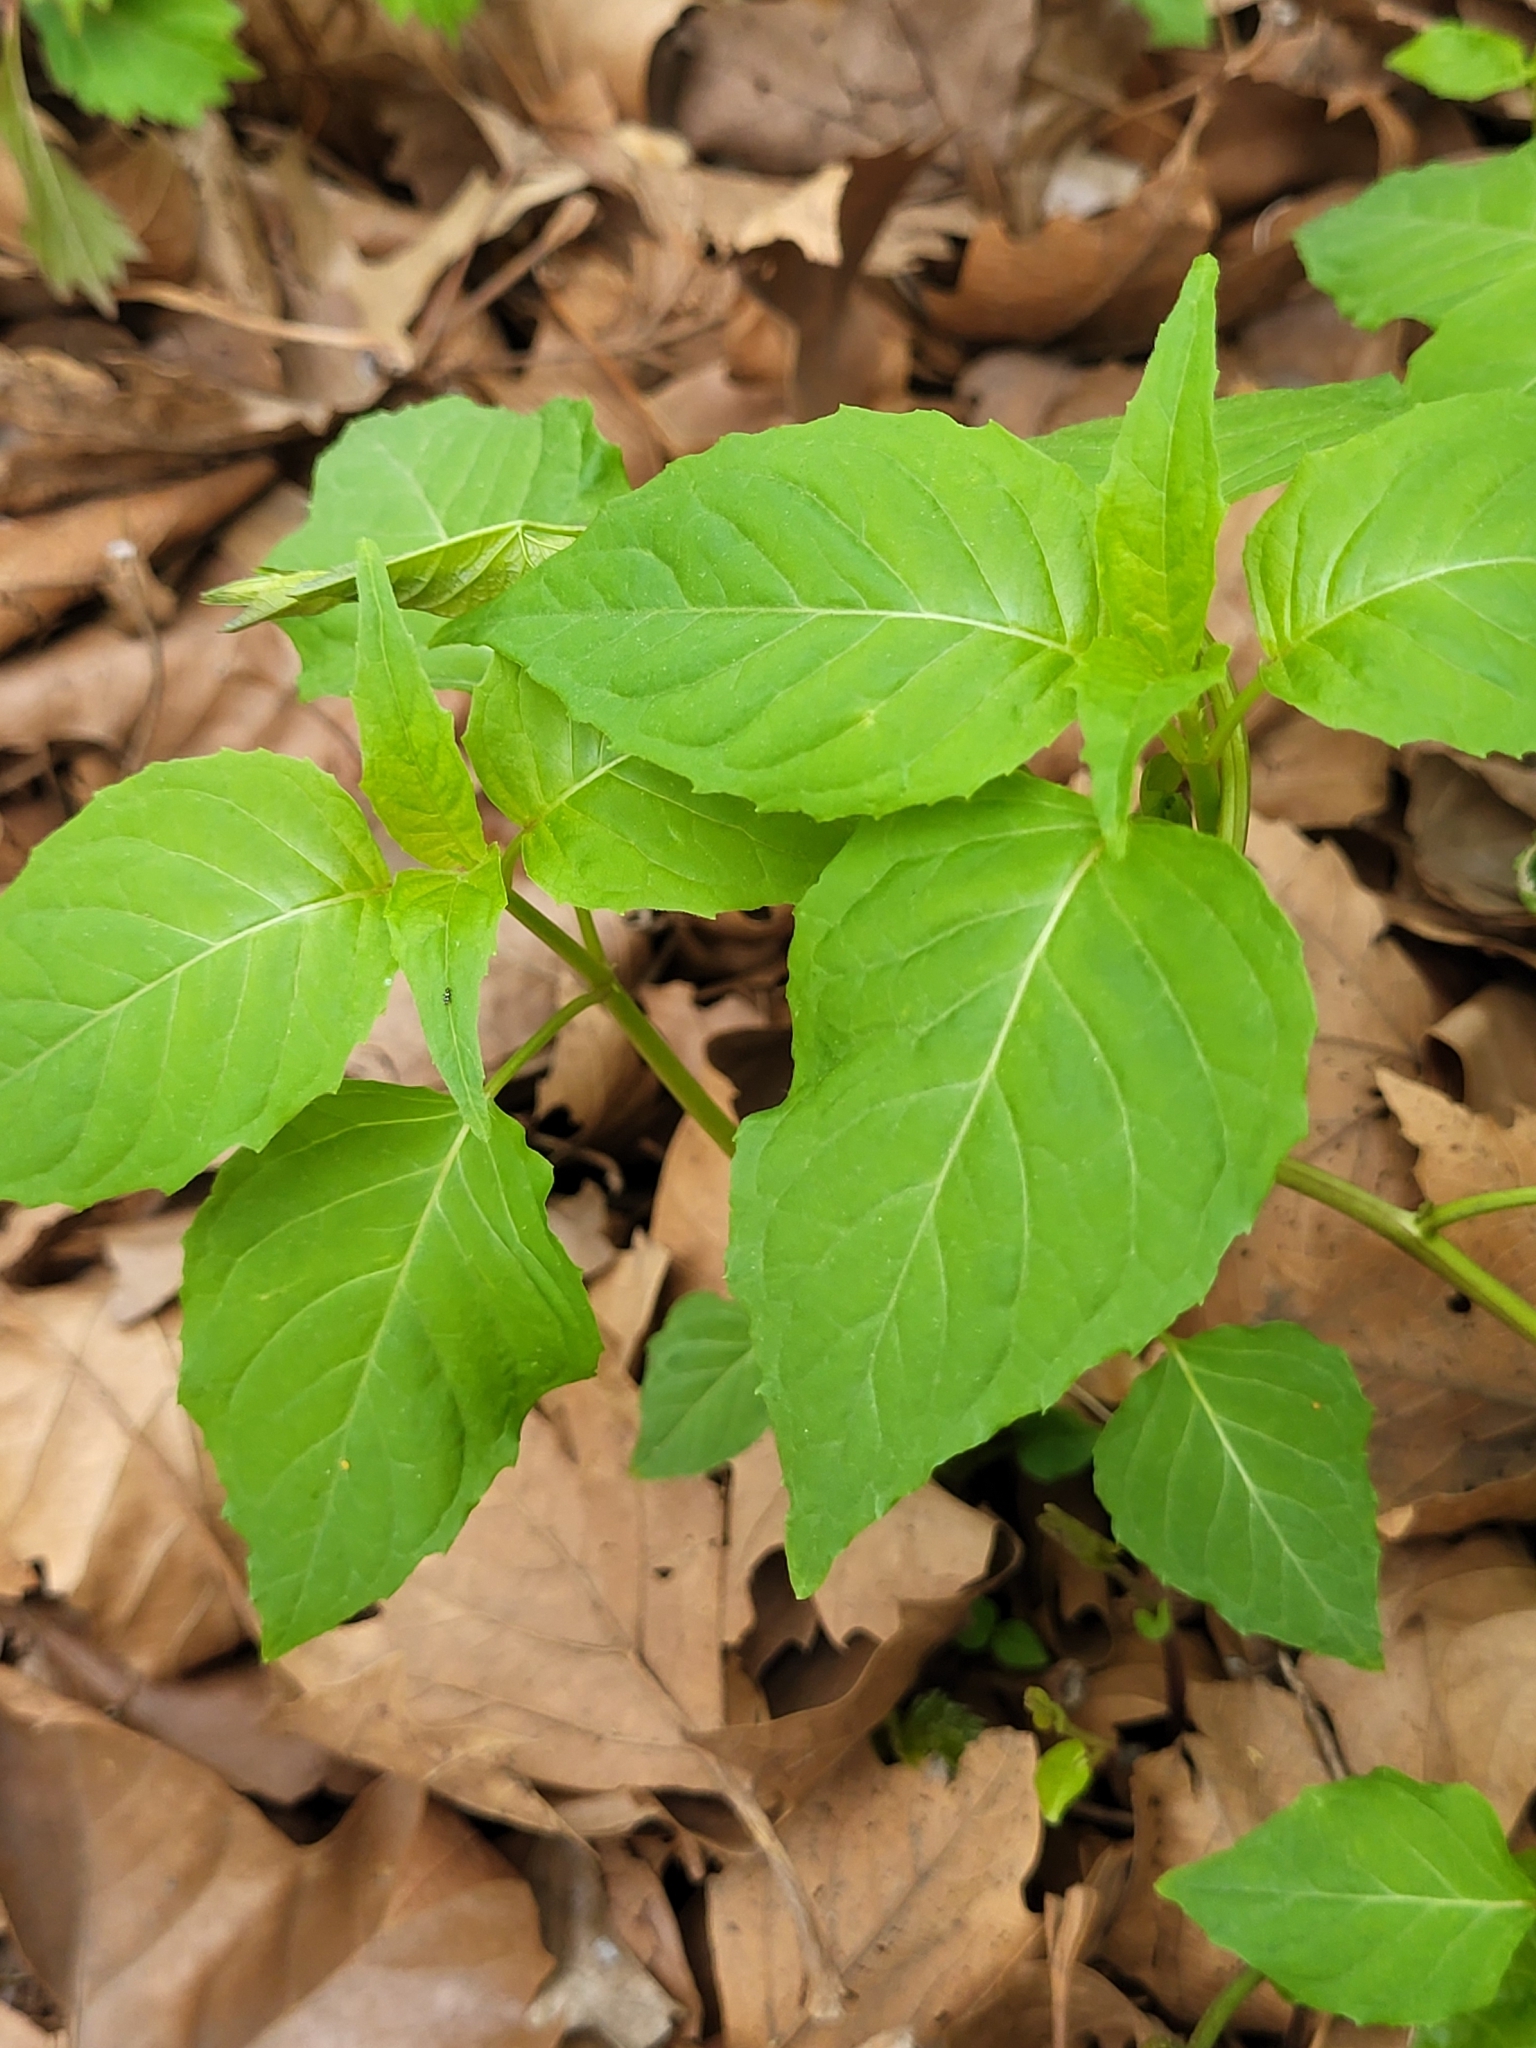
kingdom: Plantae
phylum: Tracheophyta
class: Magnoliopsida
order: Myrtales
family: Onagraceae
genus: Circaea
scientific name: Circaea canadensis
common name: Broad-leaved enchanter's nightshade
